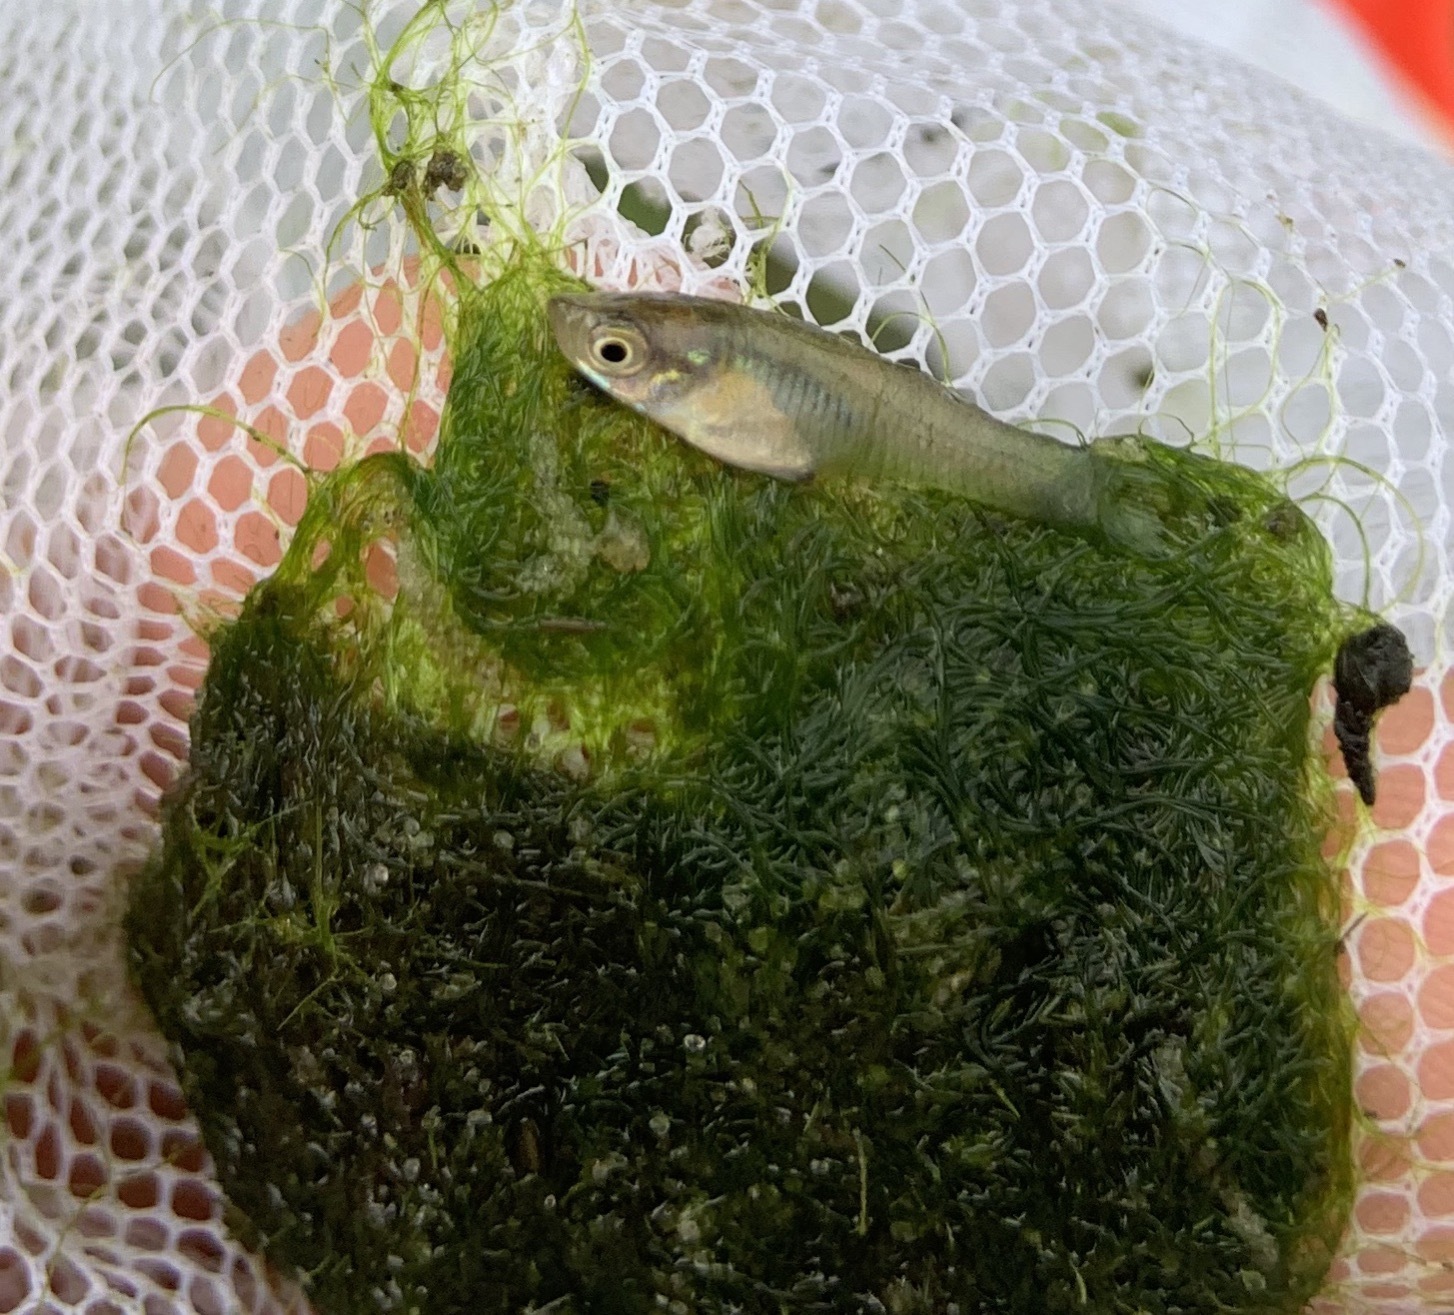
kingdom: Animalia
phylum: Chordata
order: Cyprinodontiformes
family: Poeciliidae
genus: Gambusia
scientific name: Gambusia holbrooki
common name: Eastern mosquitofish
